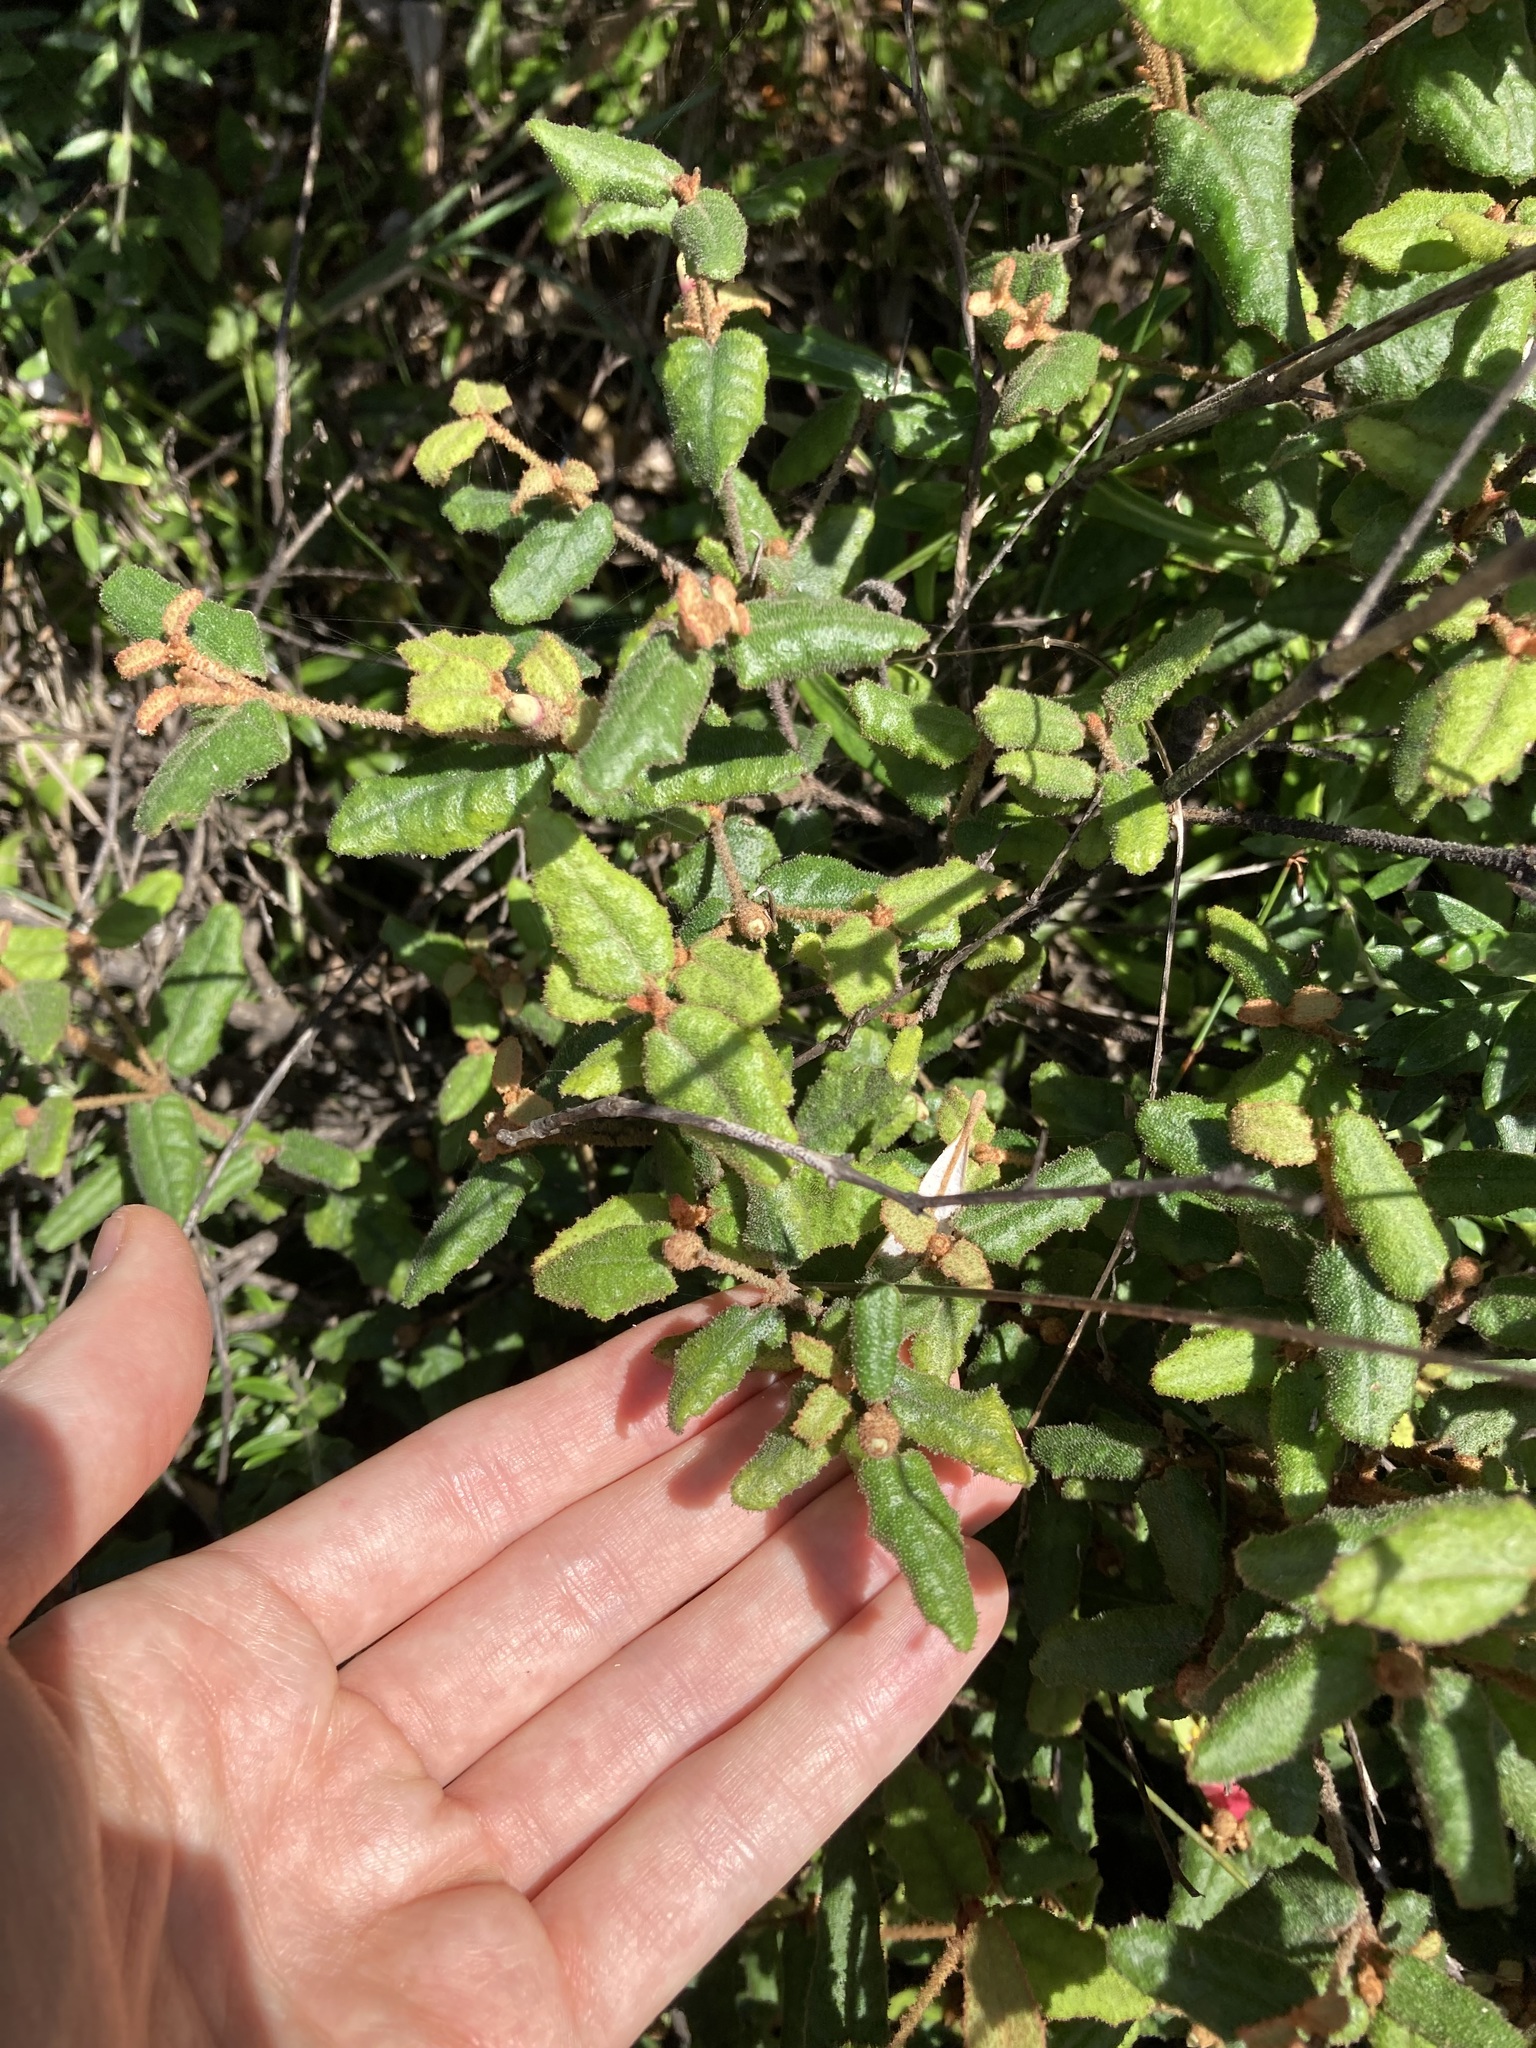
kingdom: Plantae
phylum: Tracheophyta
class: Magnoliopsida
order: Sapindales
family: Rutaceae
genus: Correa
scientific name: Correa reflexa
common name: Common correa
